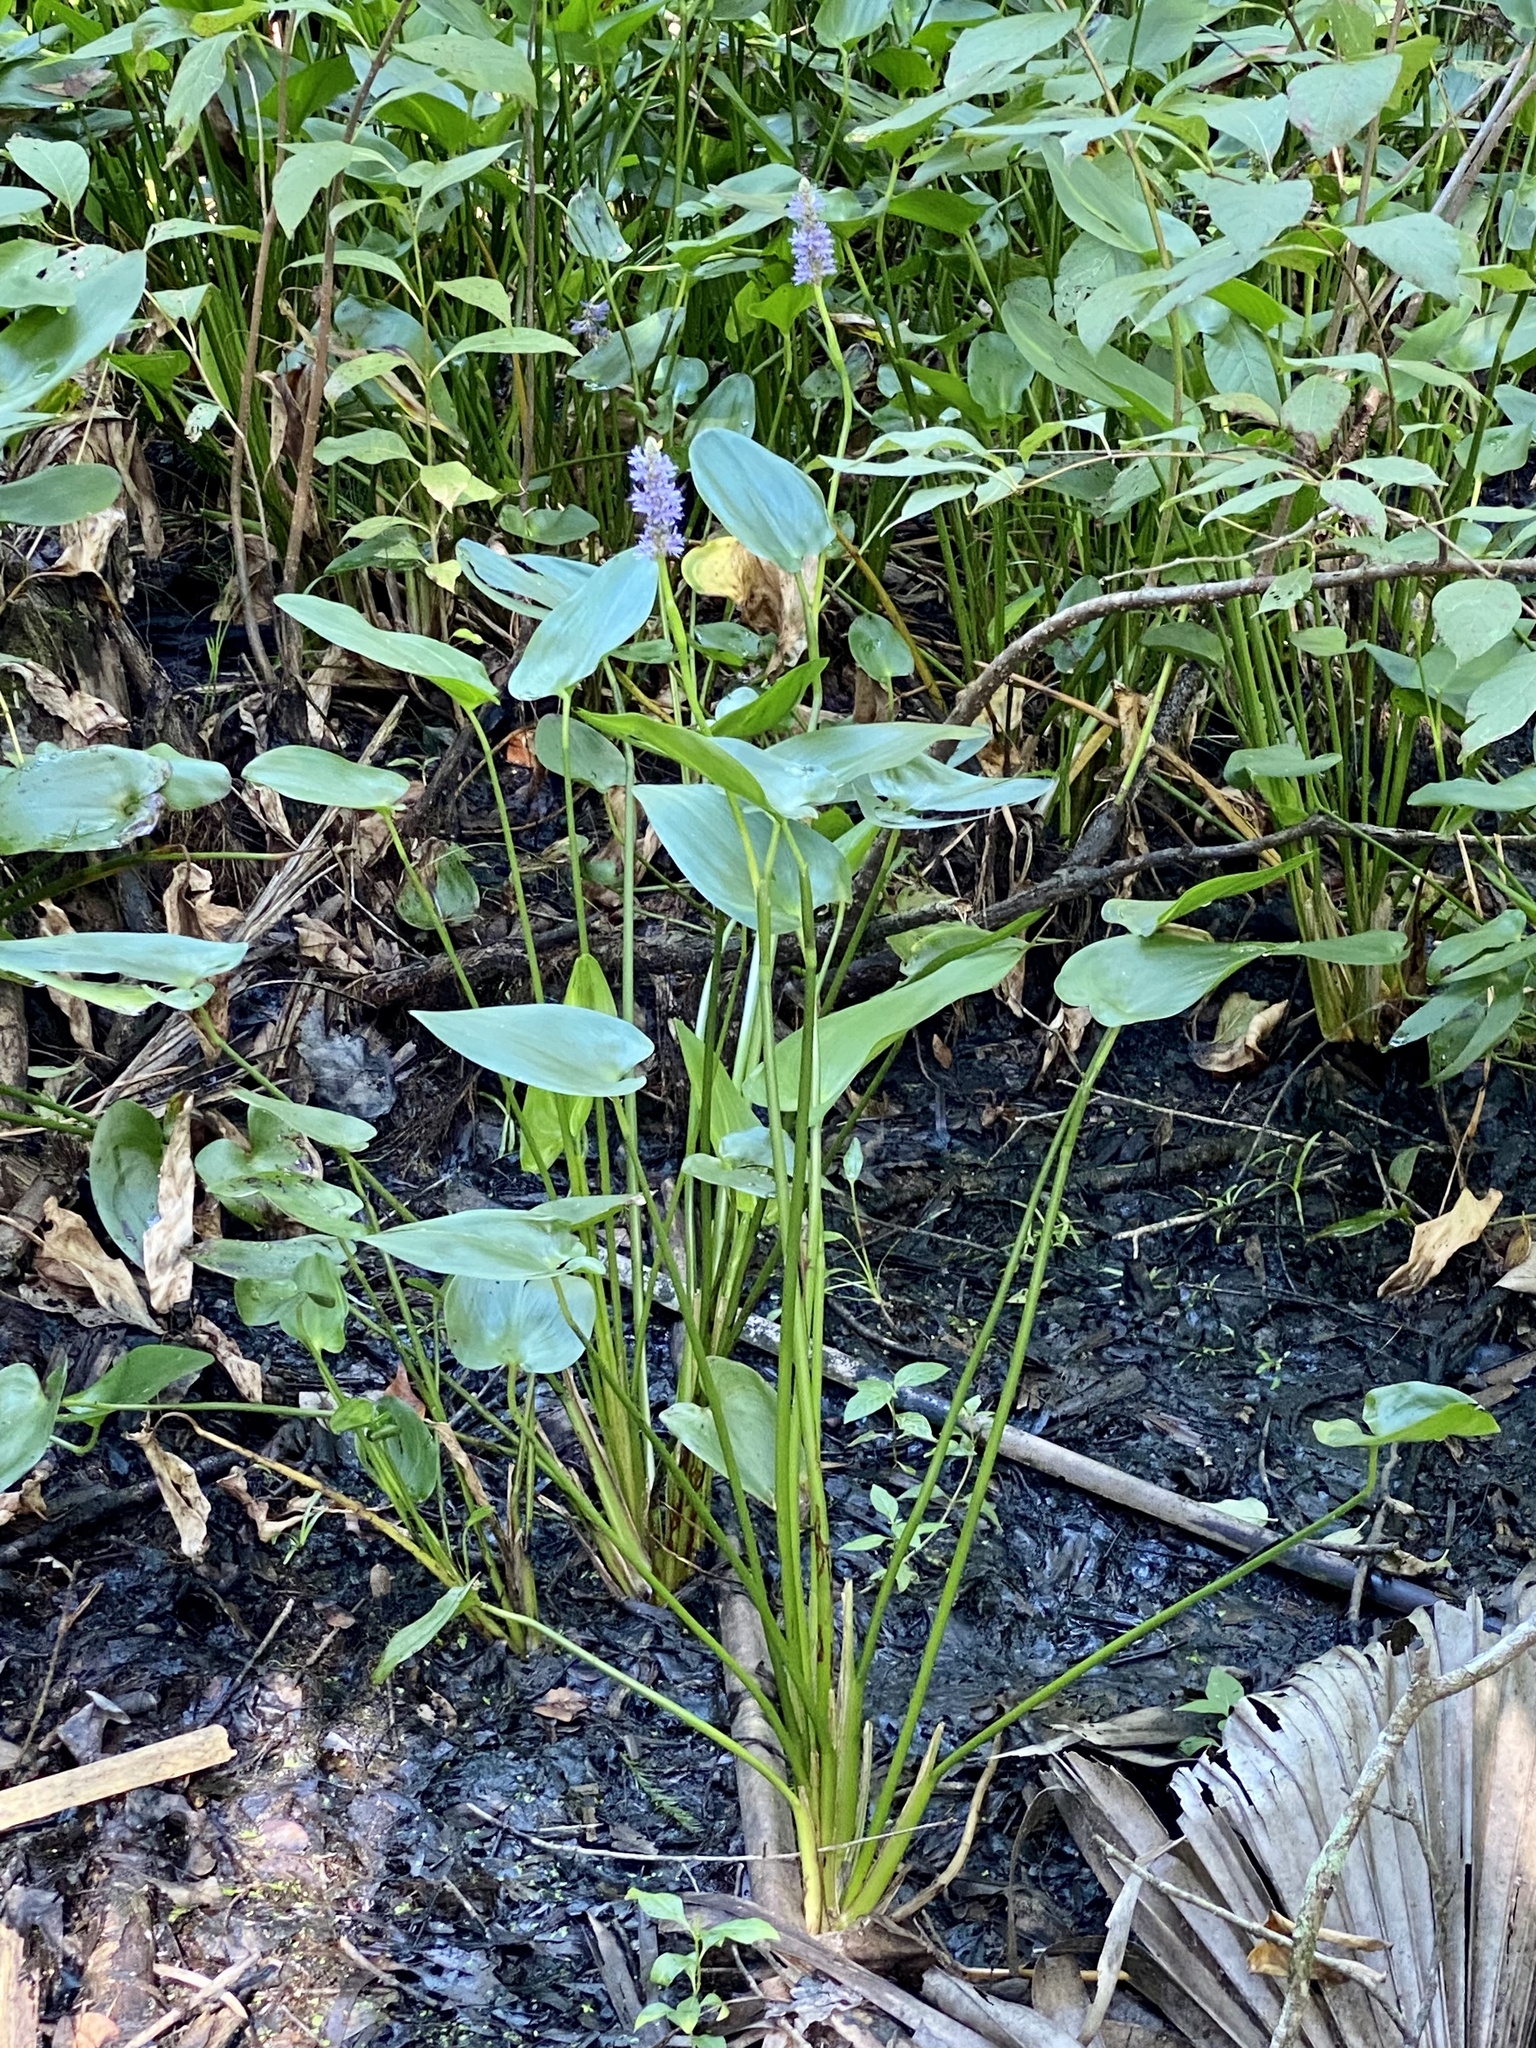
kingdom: Plantae
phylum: Tracheophyta
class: Liliopsida
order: Commelinales
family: Pontederiaceae
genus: Pontederia
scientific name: Pontederia cordata
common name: Pickerelweed
